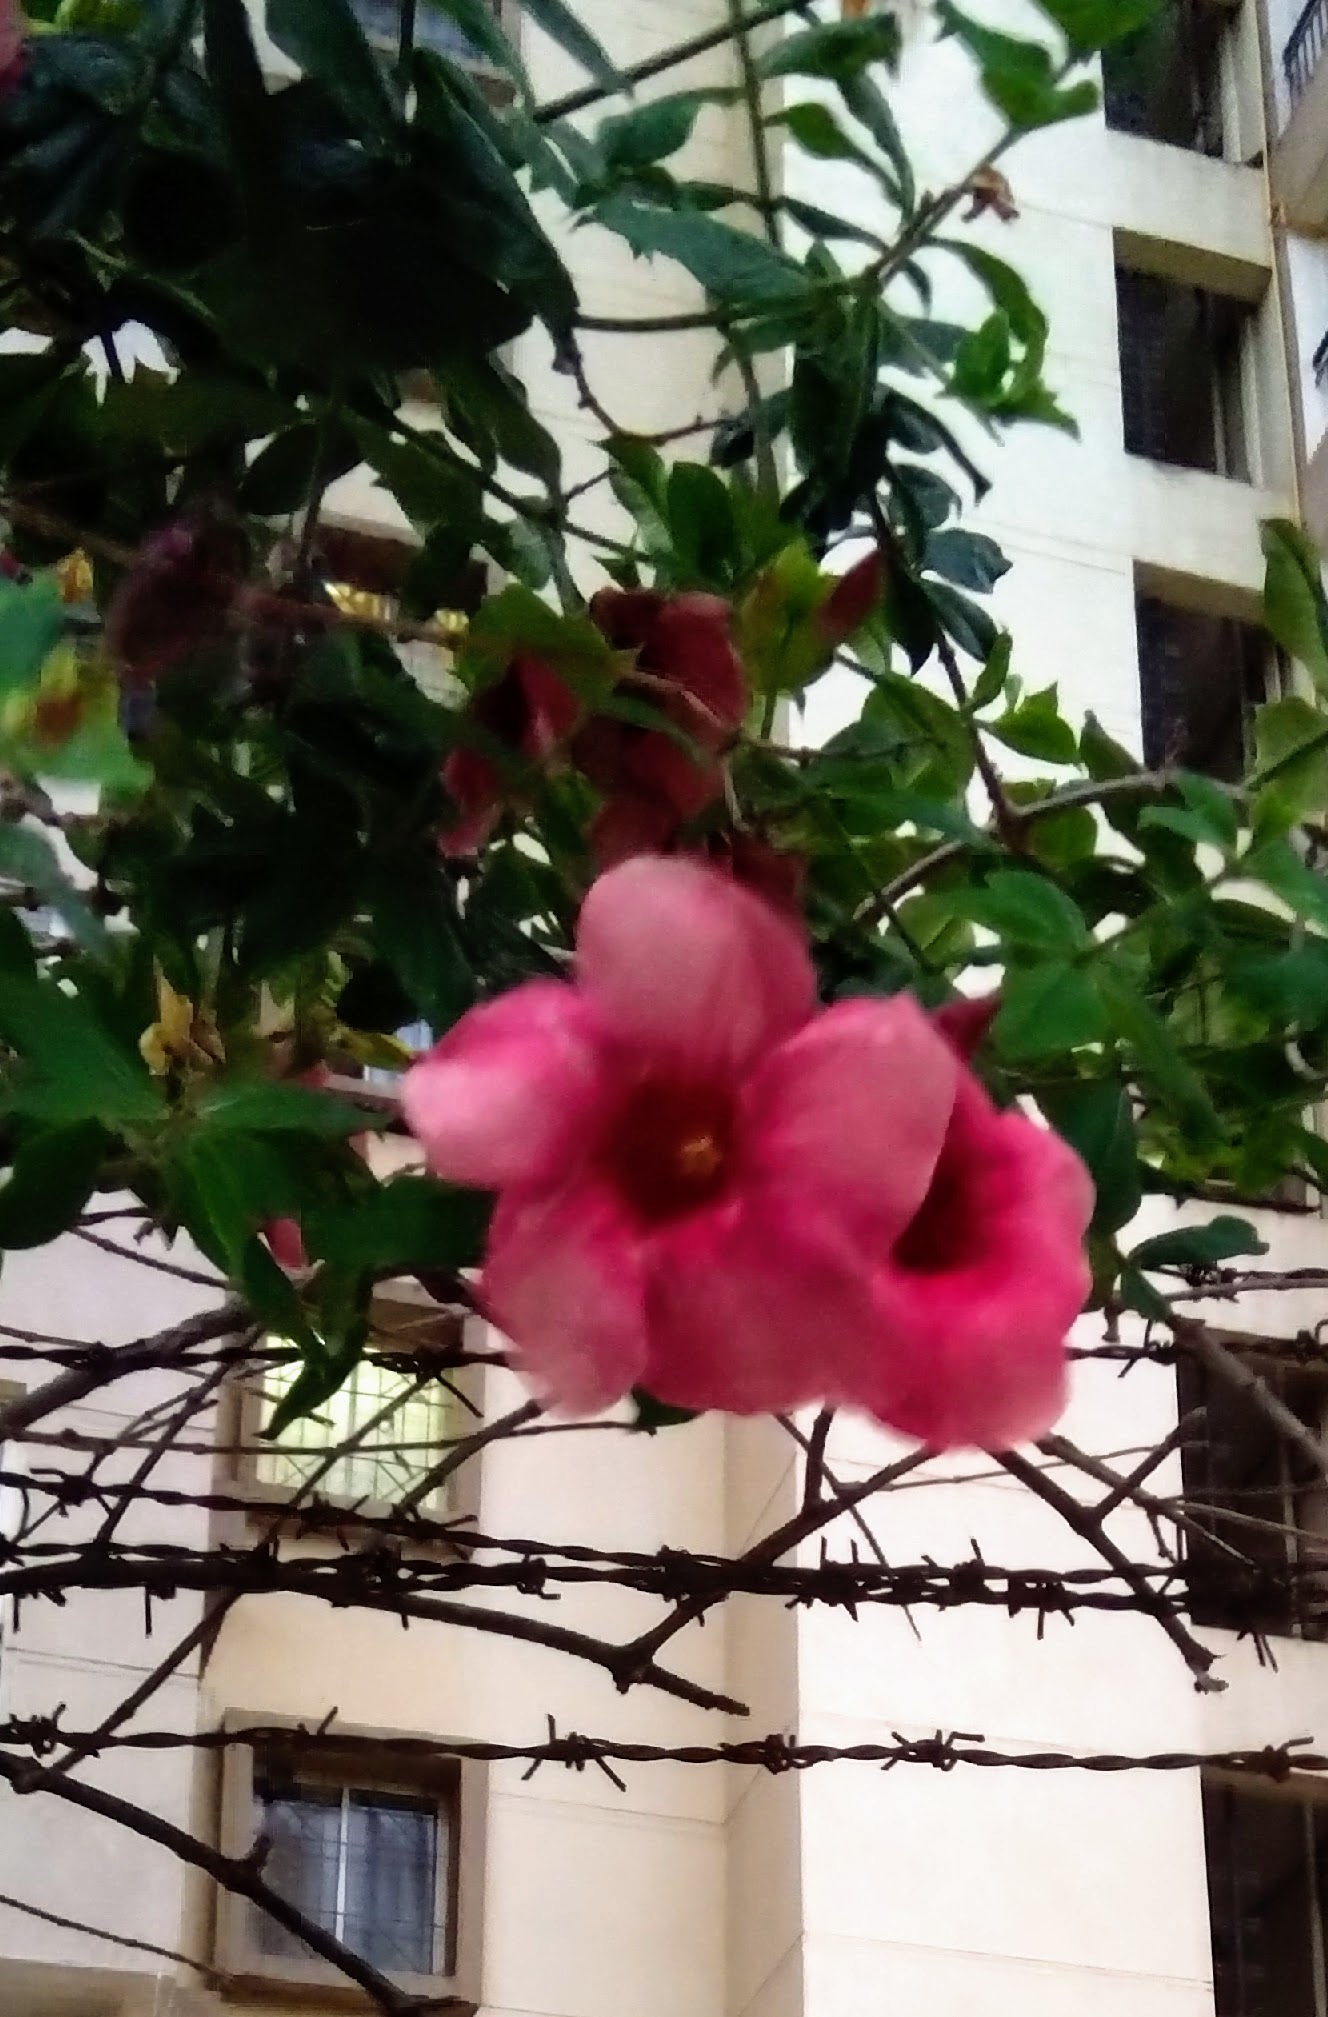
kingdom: Plantae
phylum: Tracheophyta
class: Magnoliopsida
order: Gentianales
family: Apocynaceae
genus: Allamanda
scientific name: Allamanda blanchetii
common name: Purple allamanda
